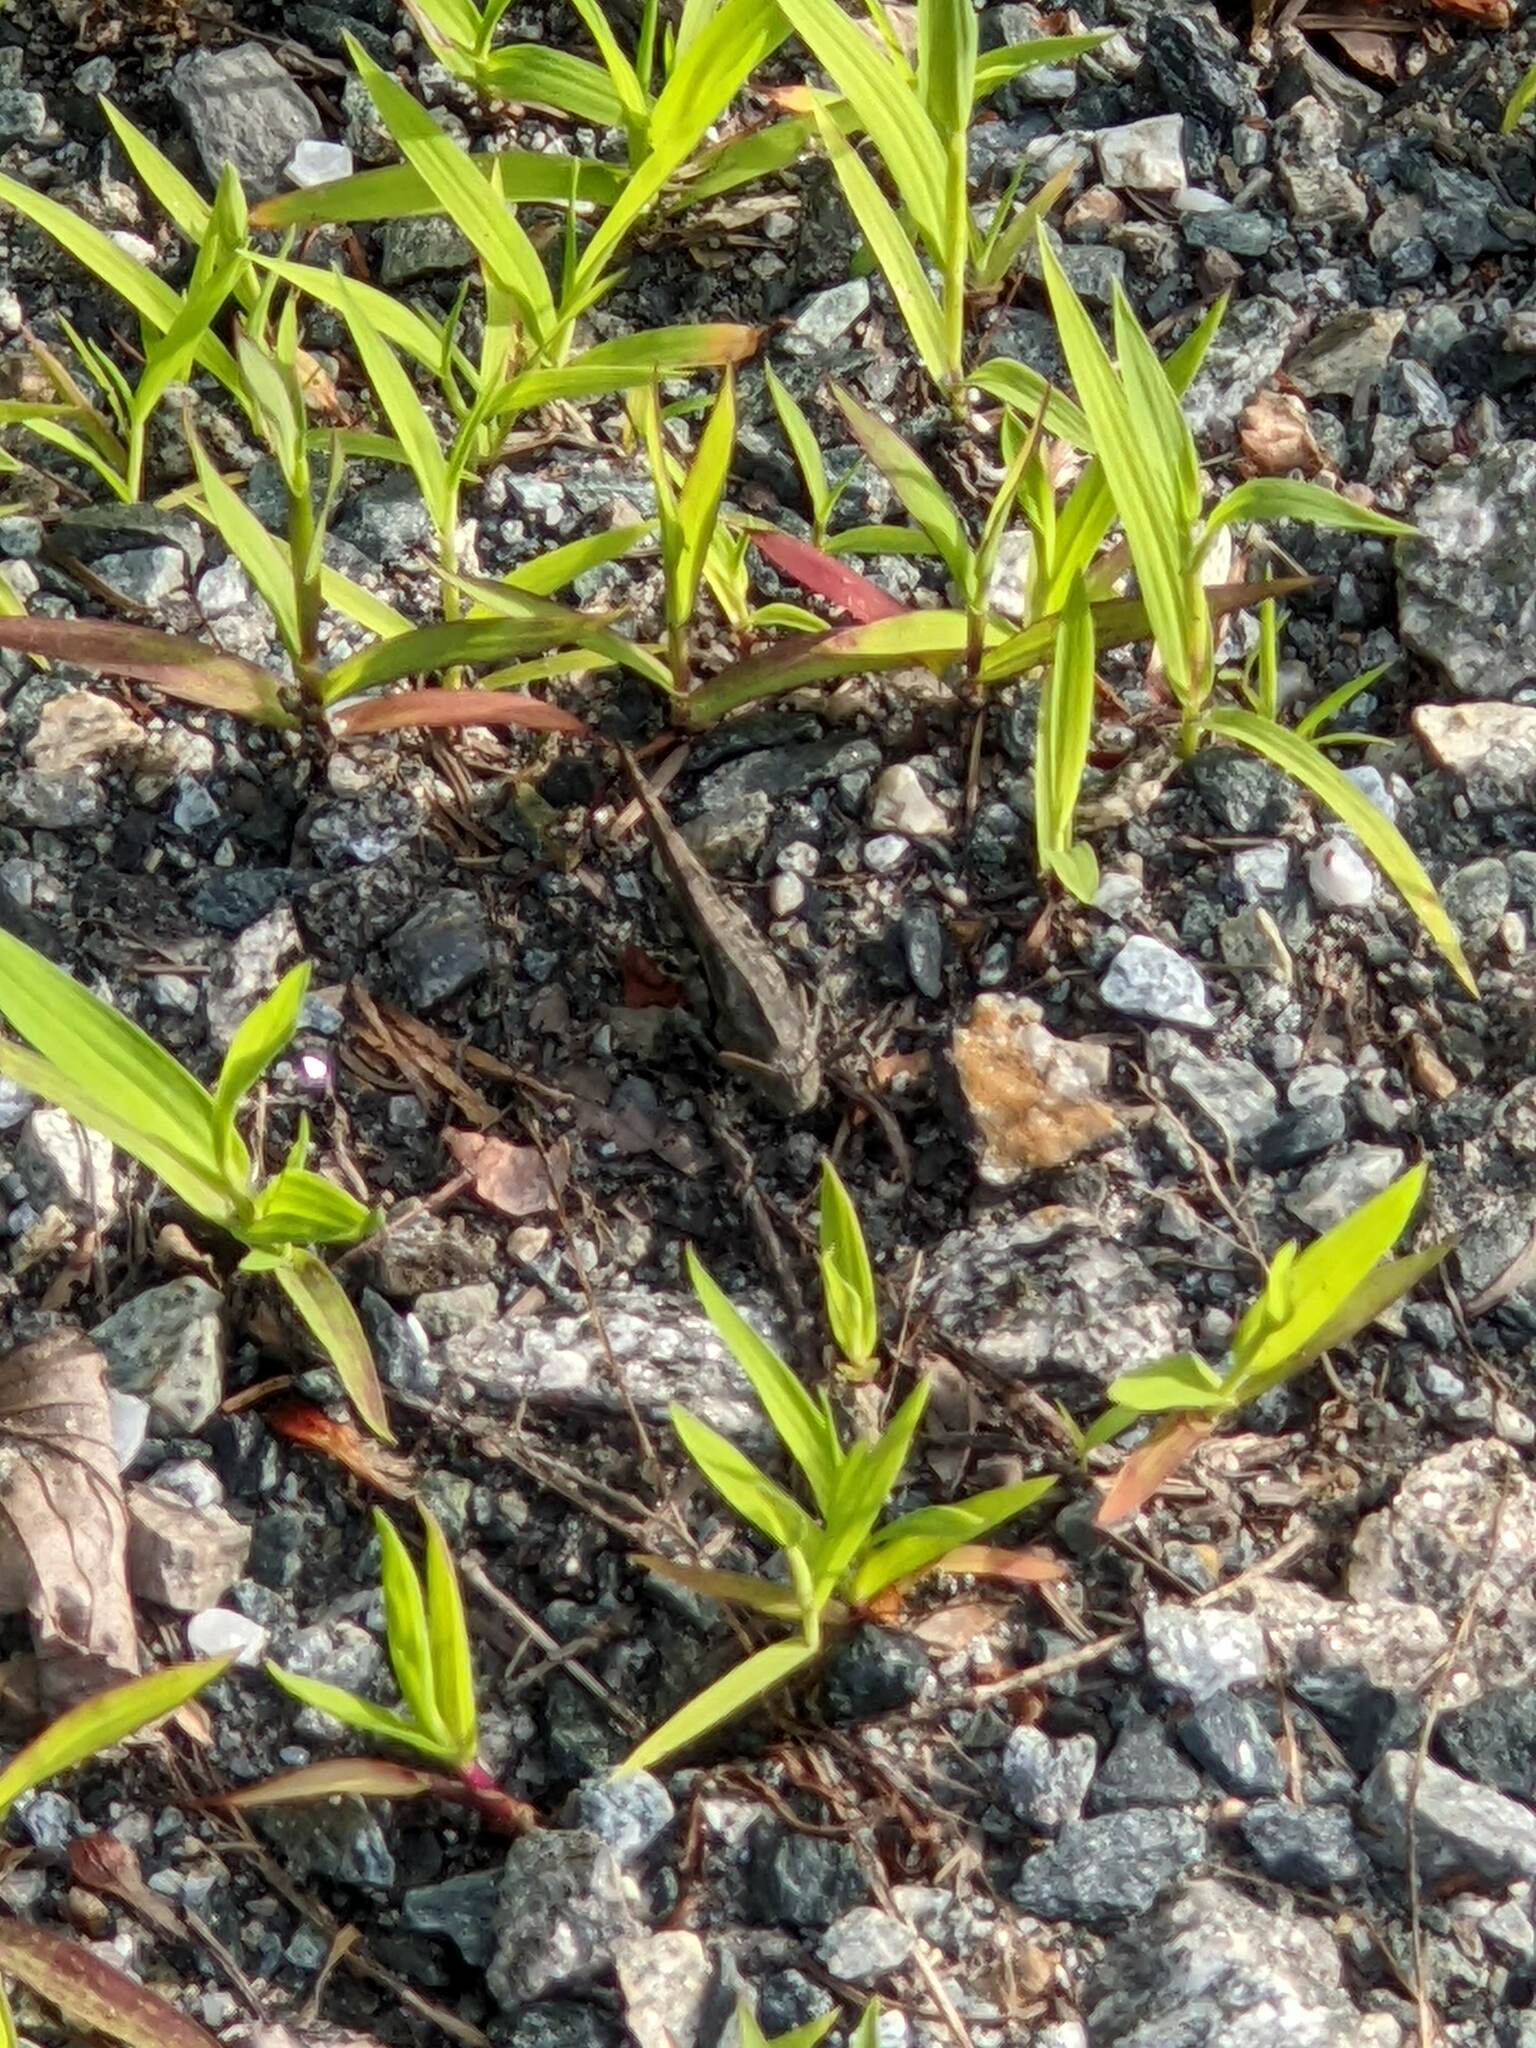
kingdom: Animalia
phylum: Arthropoda
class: Insecta
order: Orthoptera
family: Acrididae
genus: Dissosteira
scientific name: Dissosteira carolina
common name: Carolina grasshopper
